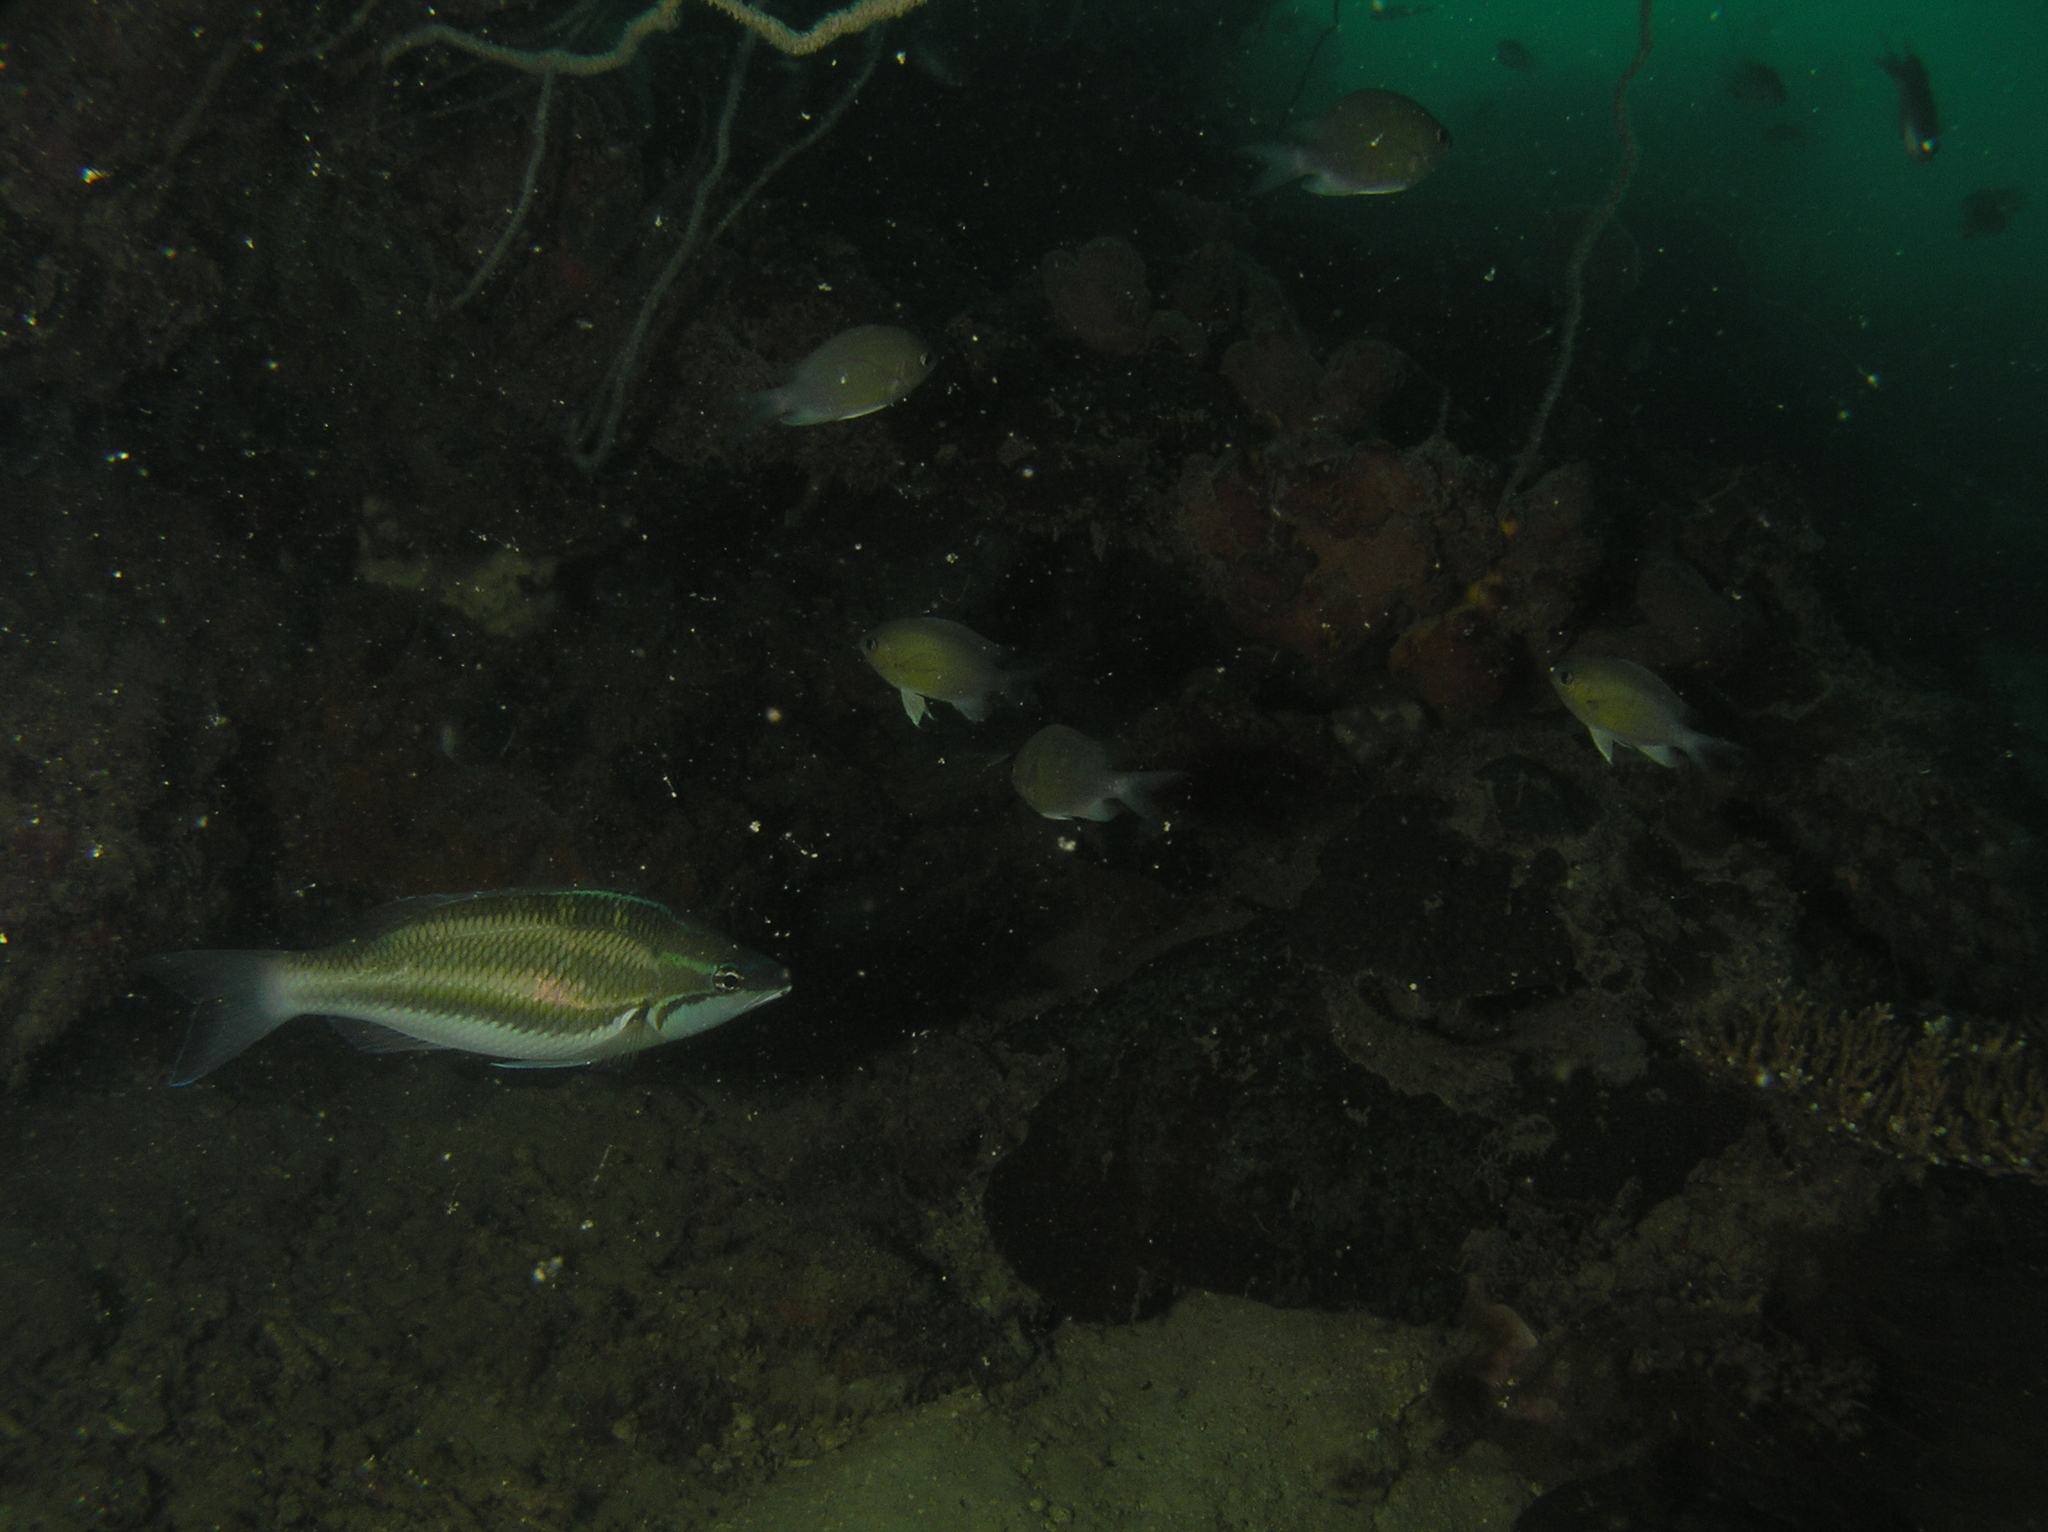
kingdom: Animalia
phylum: Chordata
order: Perciformes
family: Nemipteridae
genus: Pentapodus
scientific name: Pentapodus trivittatus
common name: Three-striped whiptail
